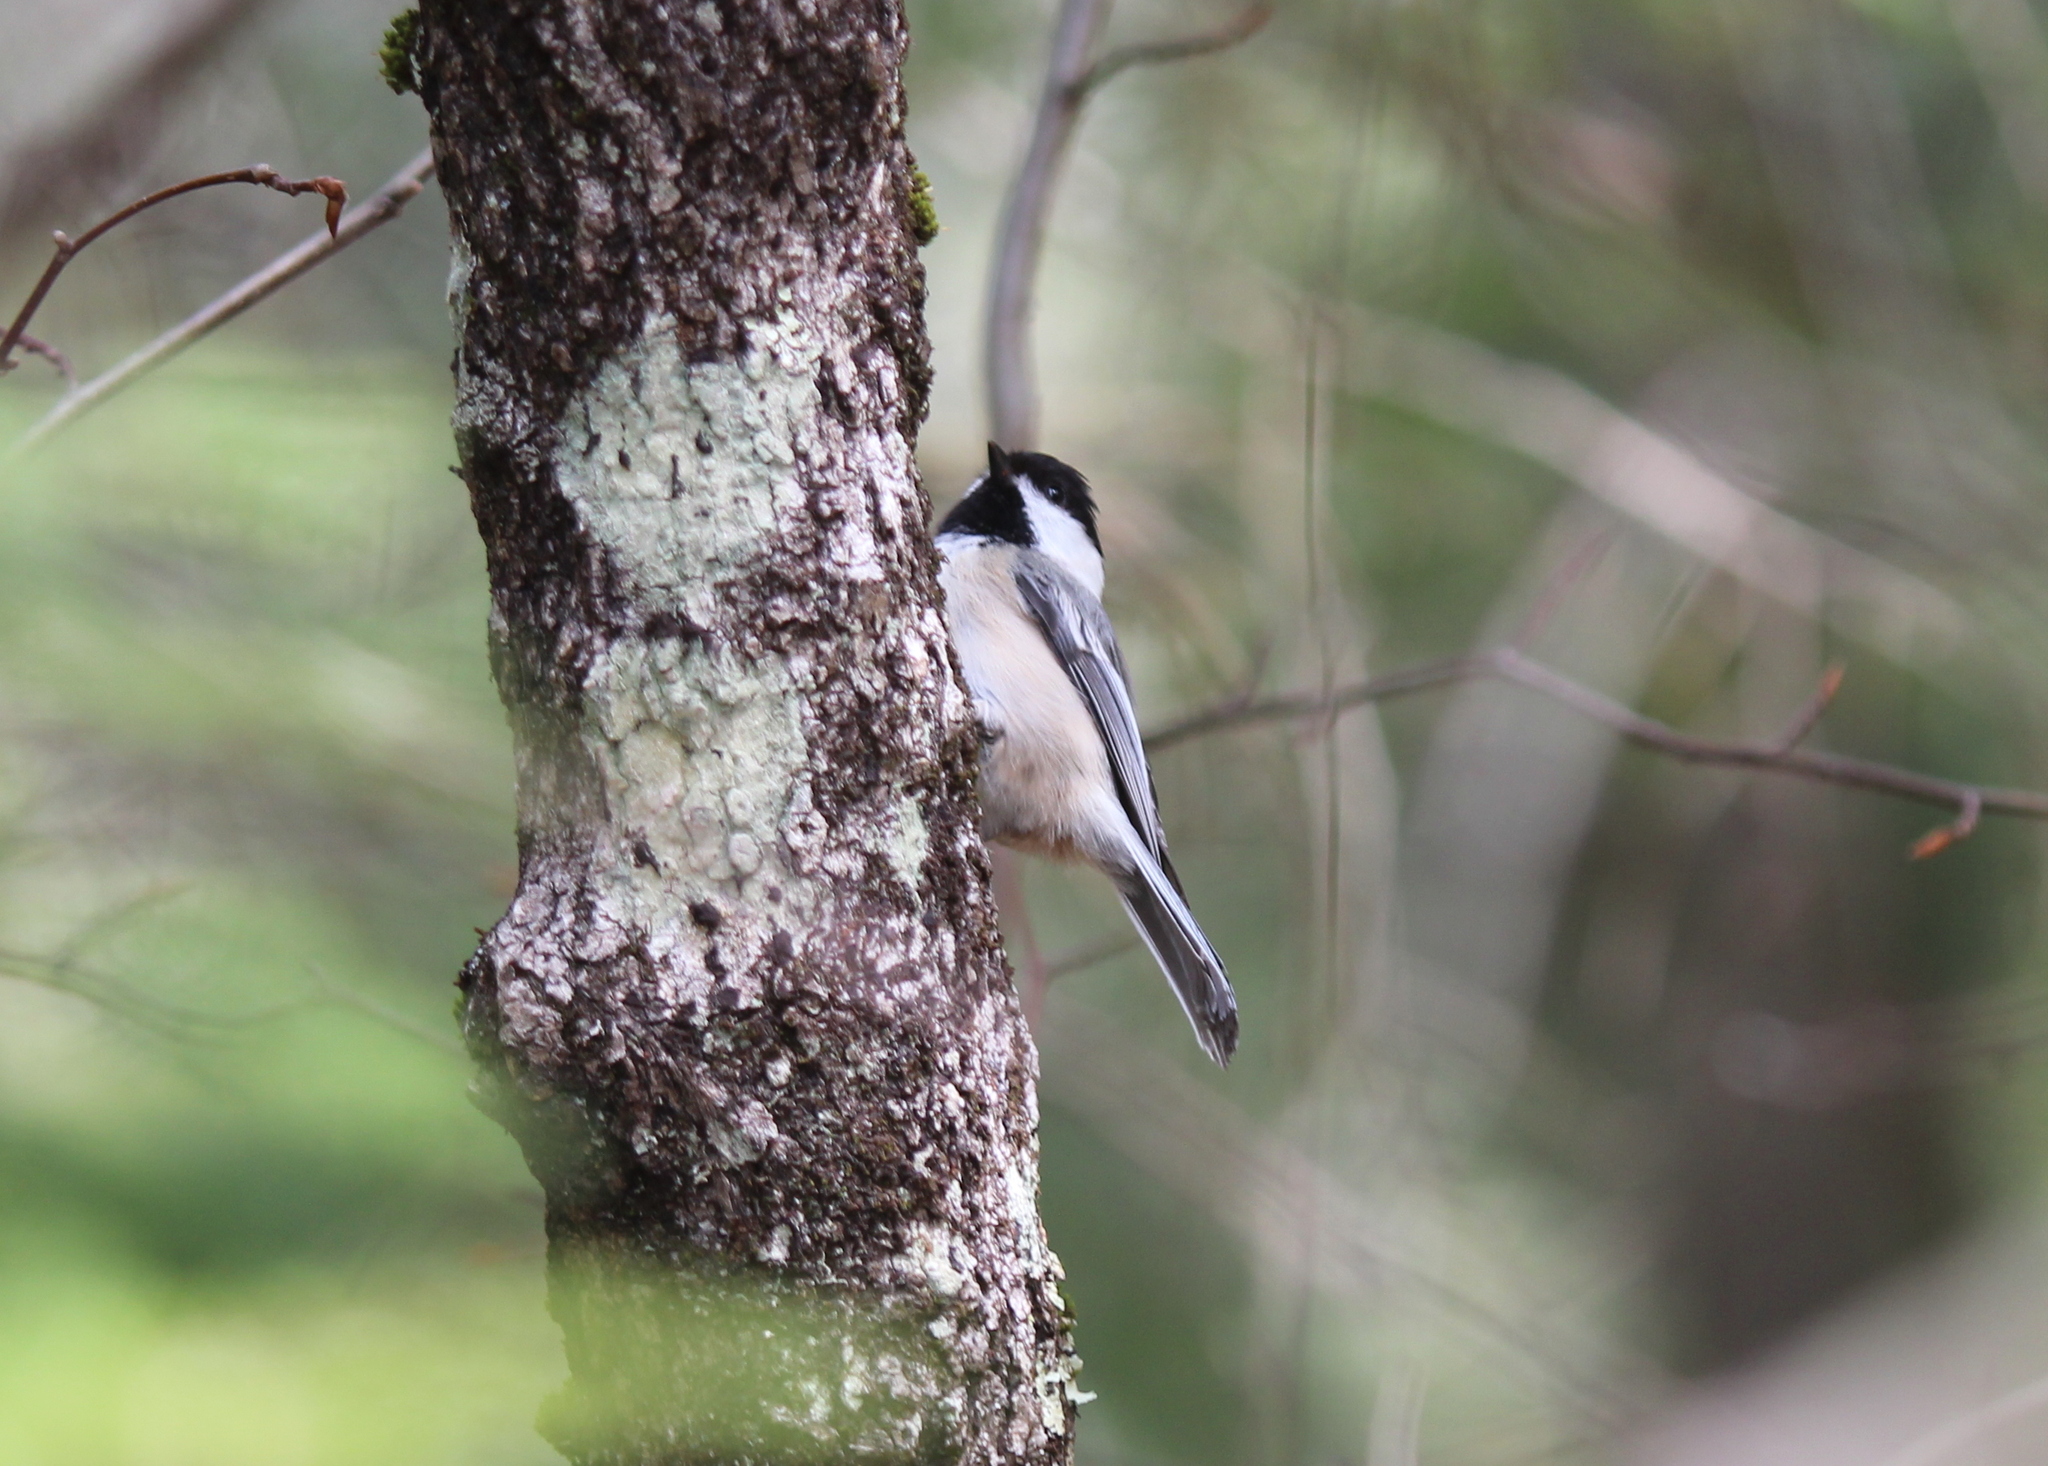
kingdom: Animalia
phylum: Chordata
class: Aves
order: Passeriformes
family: Paridae
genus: Poecile
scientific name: Poecile atricapillus
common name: Black-capped chickadee
